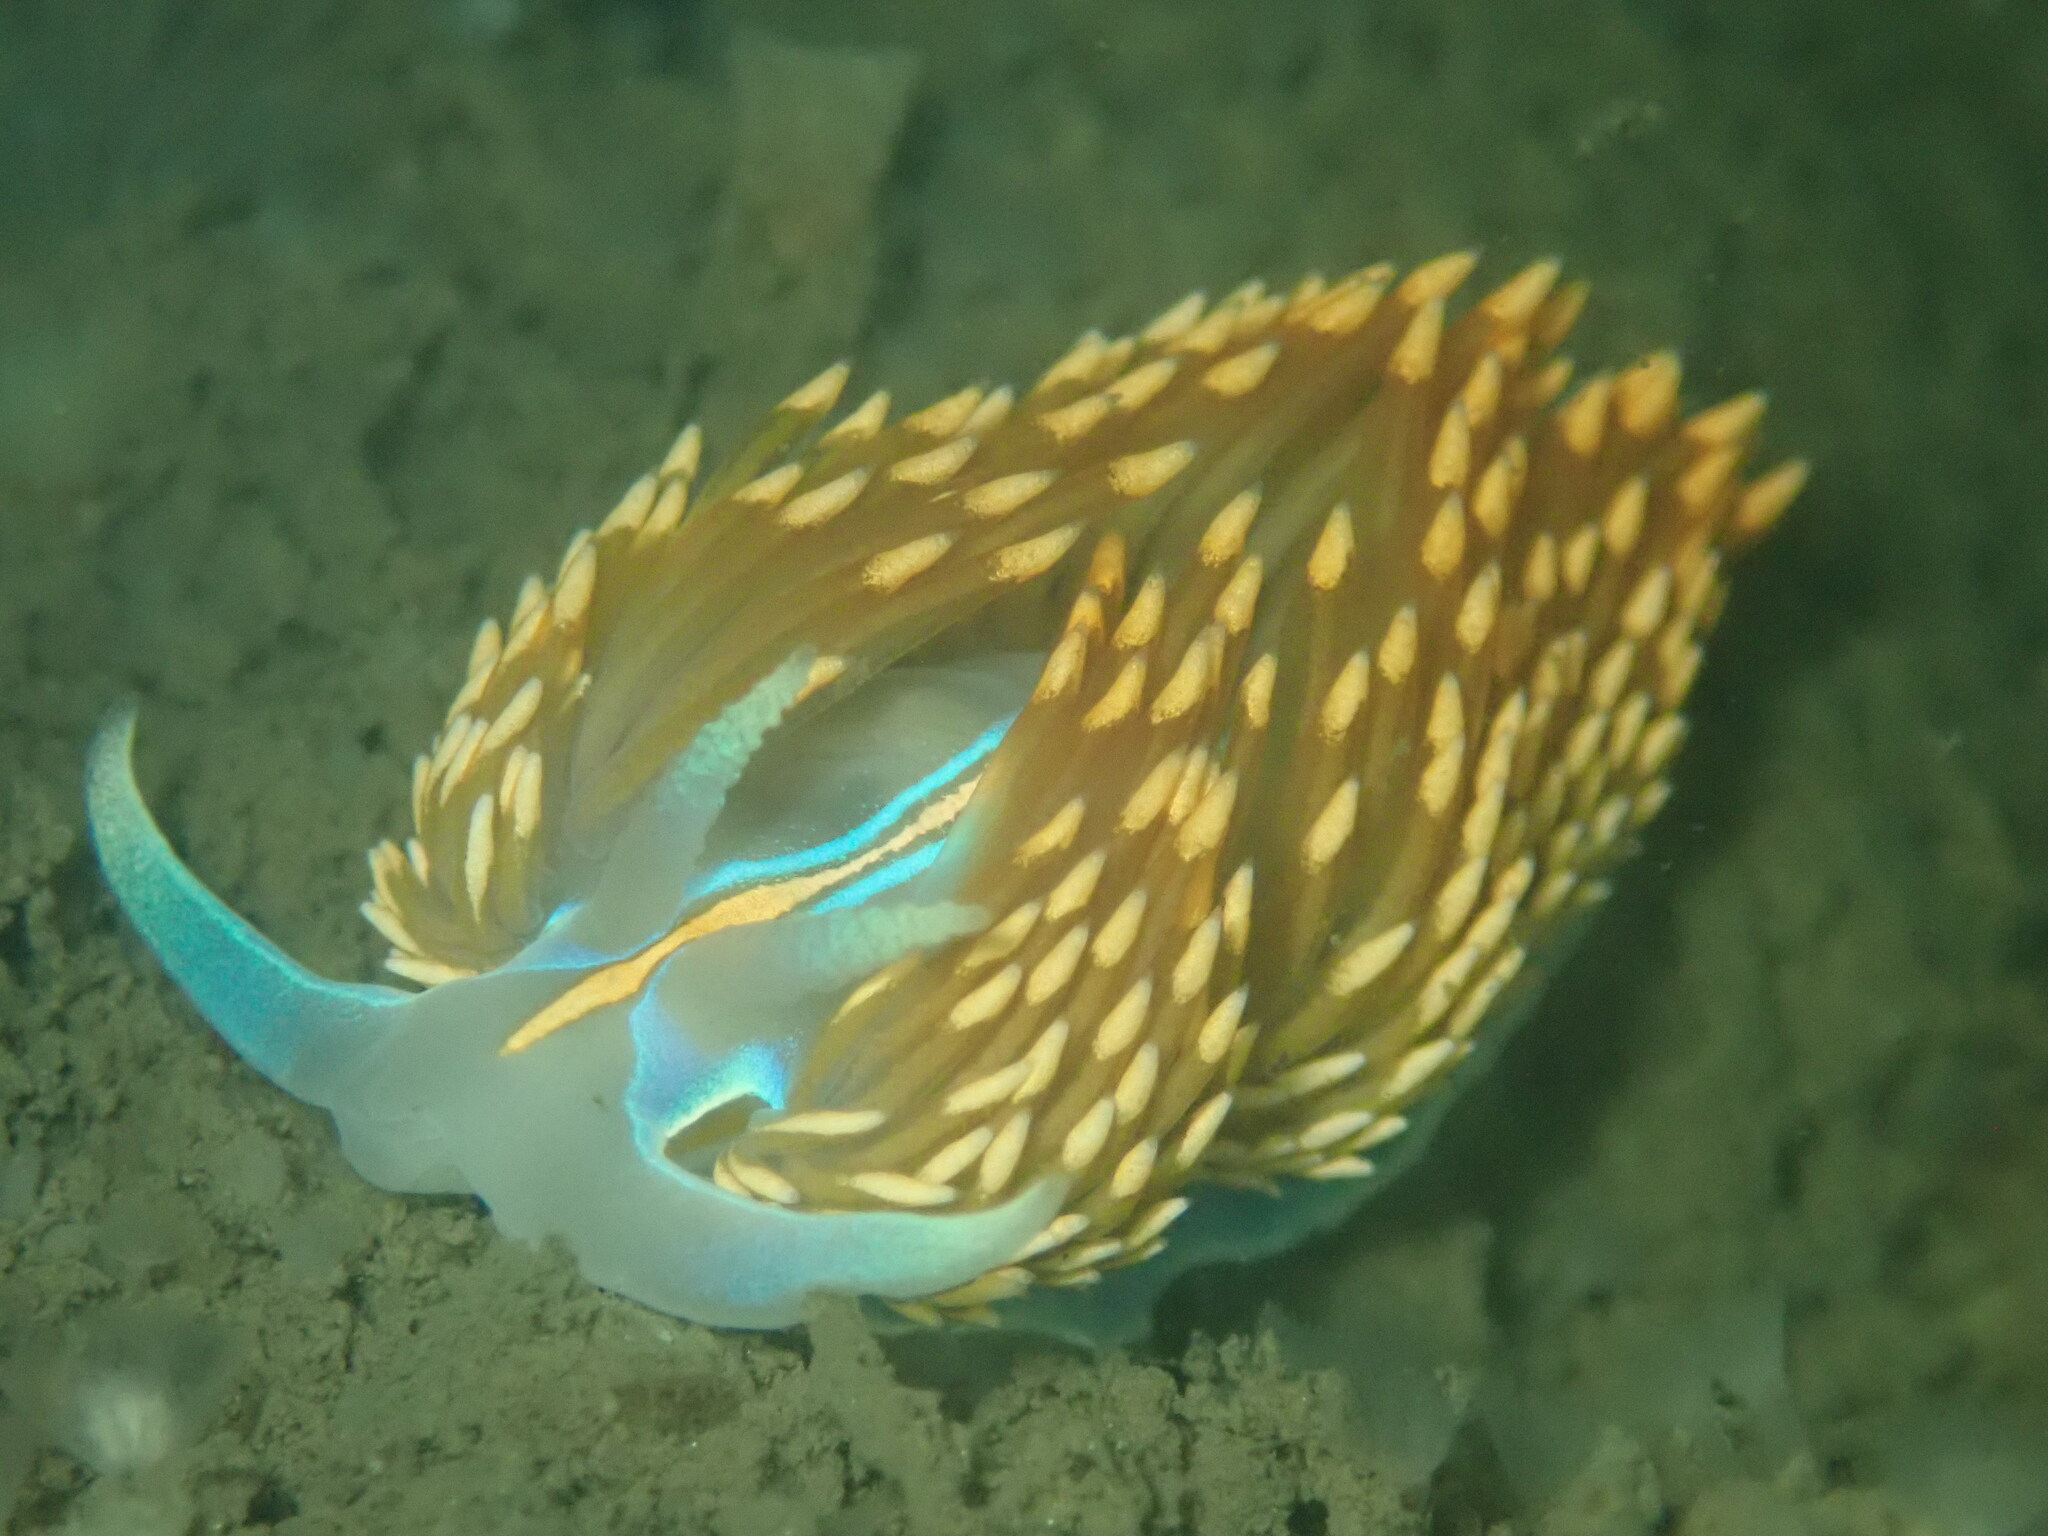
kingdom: Animalia
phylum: Mollusca
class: Gastropoda
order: Nudibranchia
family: Myrrhinidae
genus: Hermissenda
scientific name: Hermissenda opalescens
